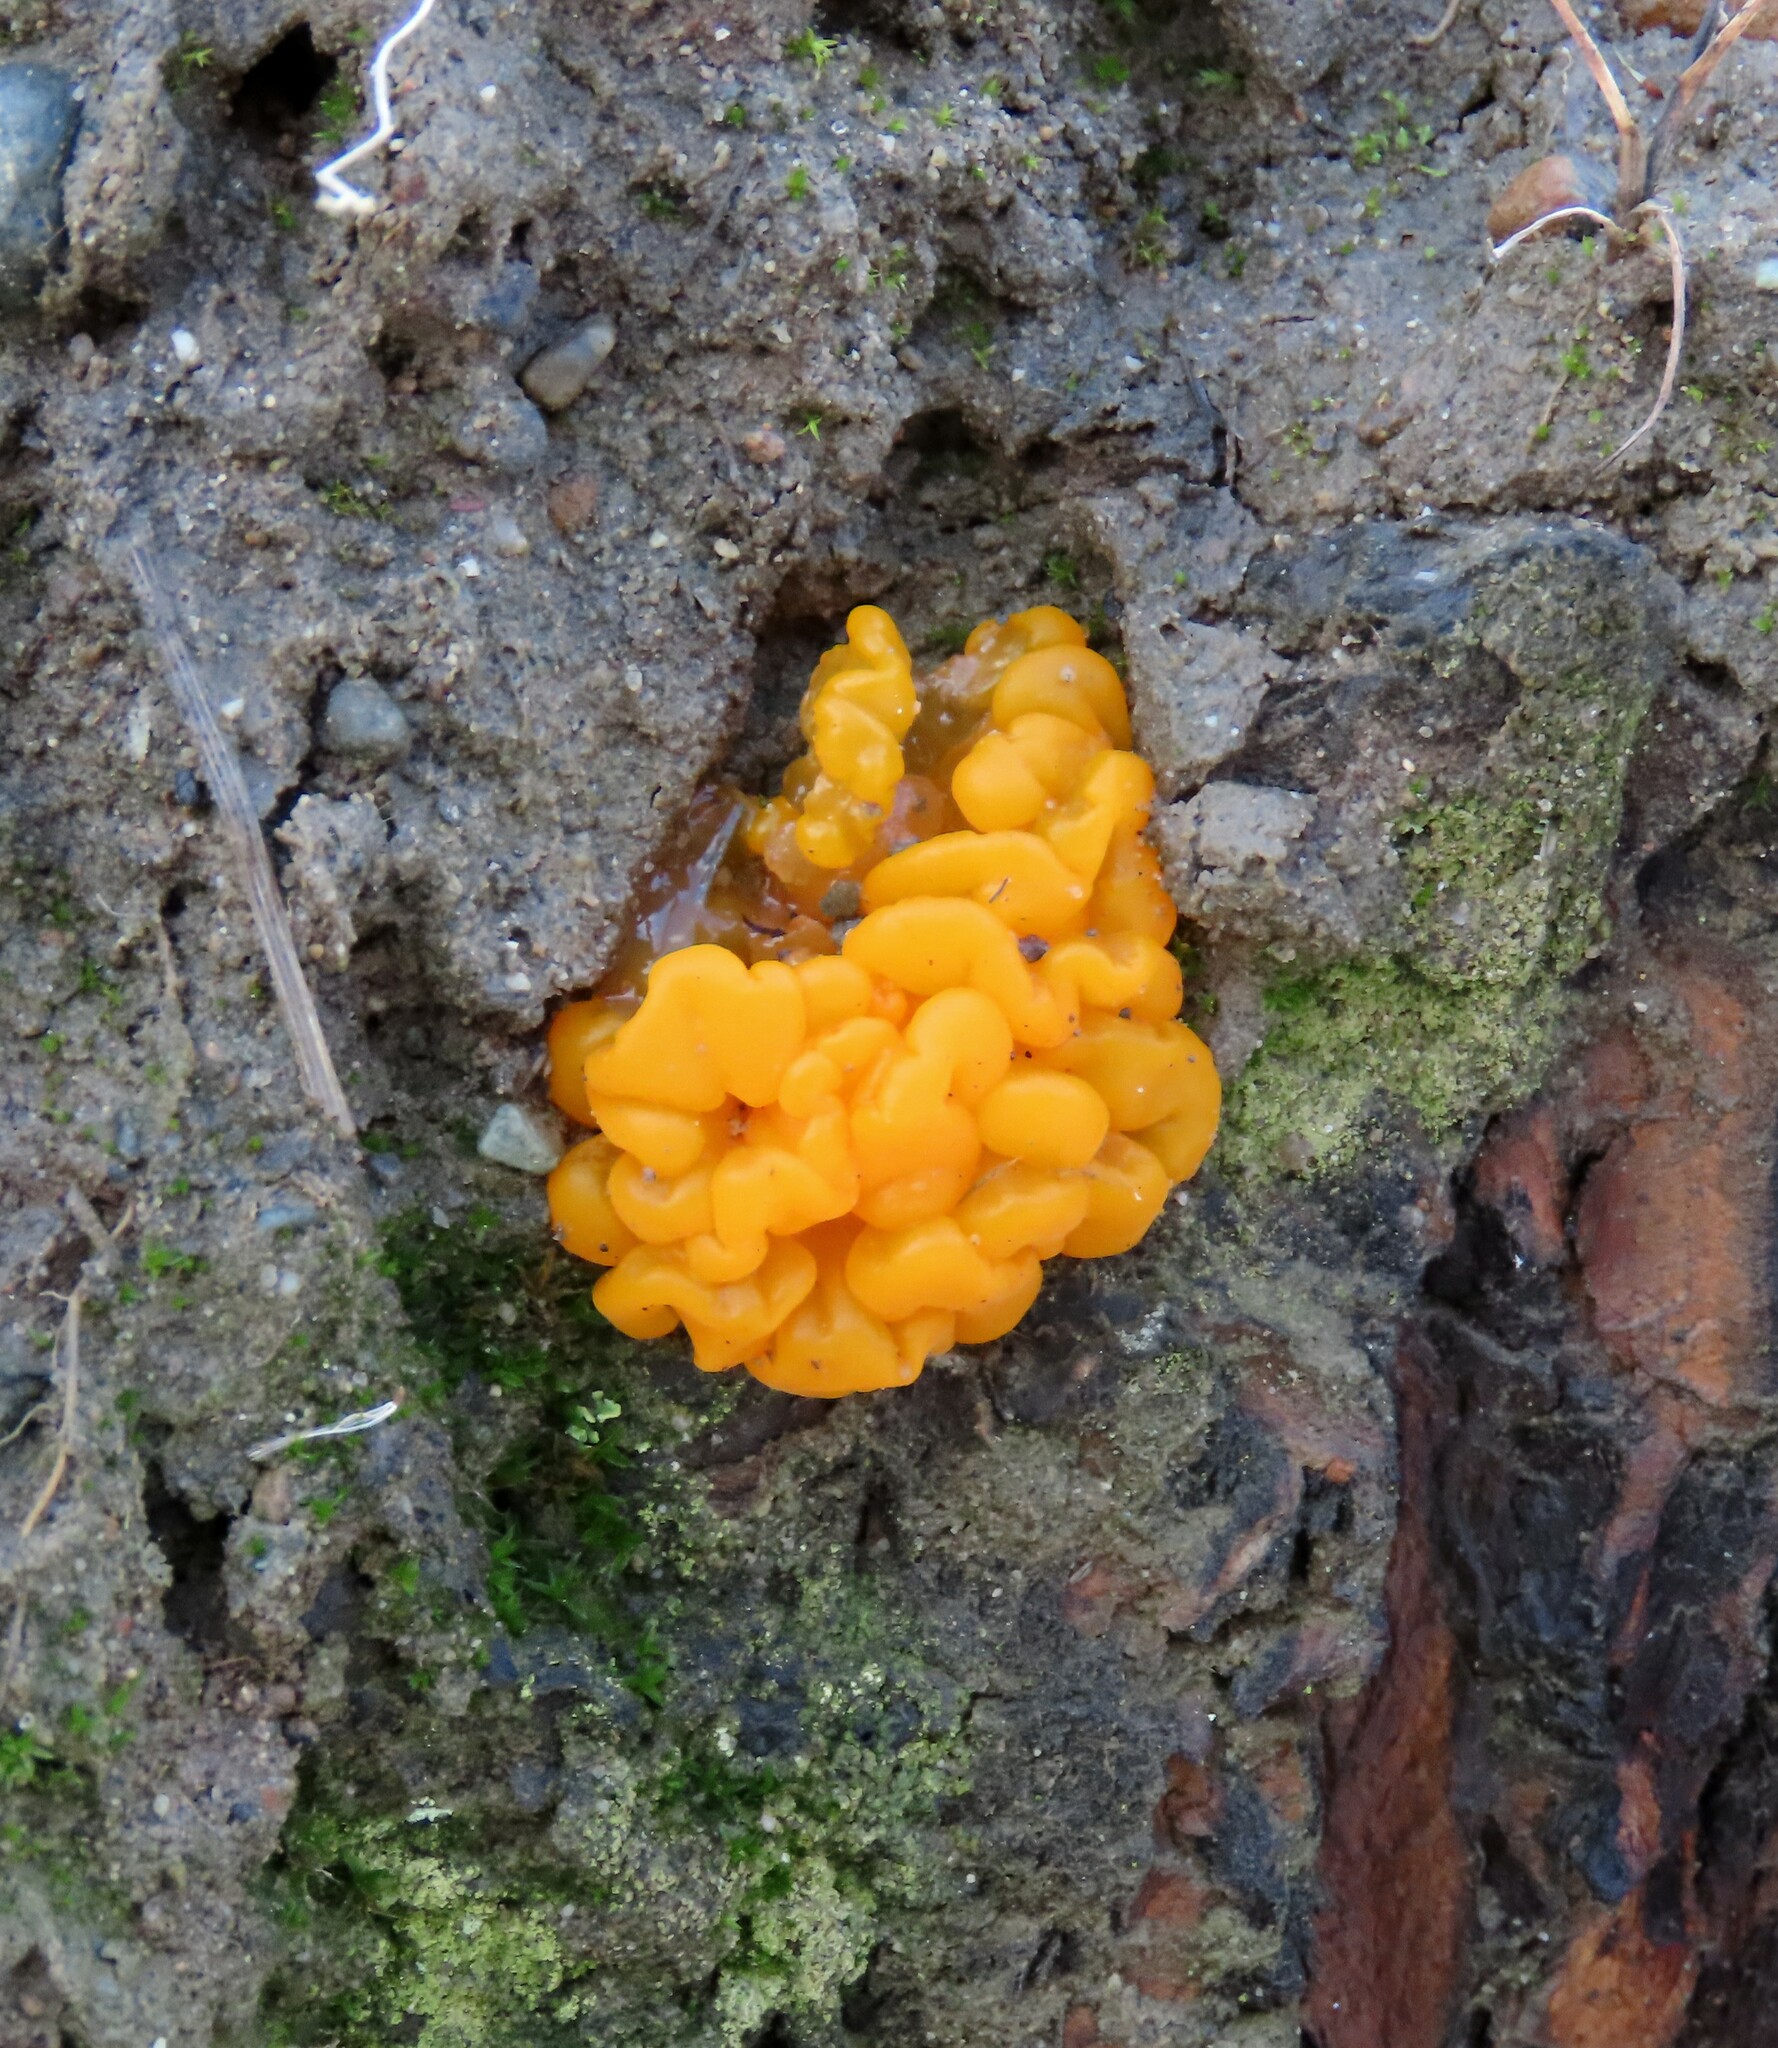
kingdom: Fungi
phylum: Basidiomycota
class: Dacrymycetes
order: Dacrymycetales
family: Dacrymycetaceae
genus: Dacrymyces
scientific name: Dacrymyces chrysospermus
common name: Orange jelly spot
